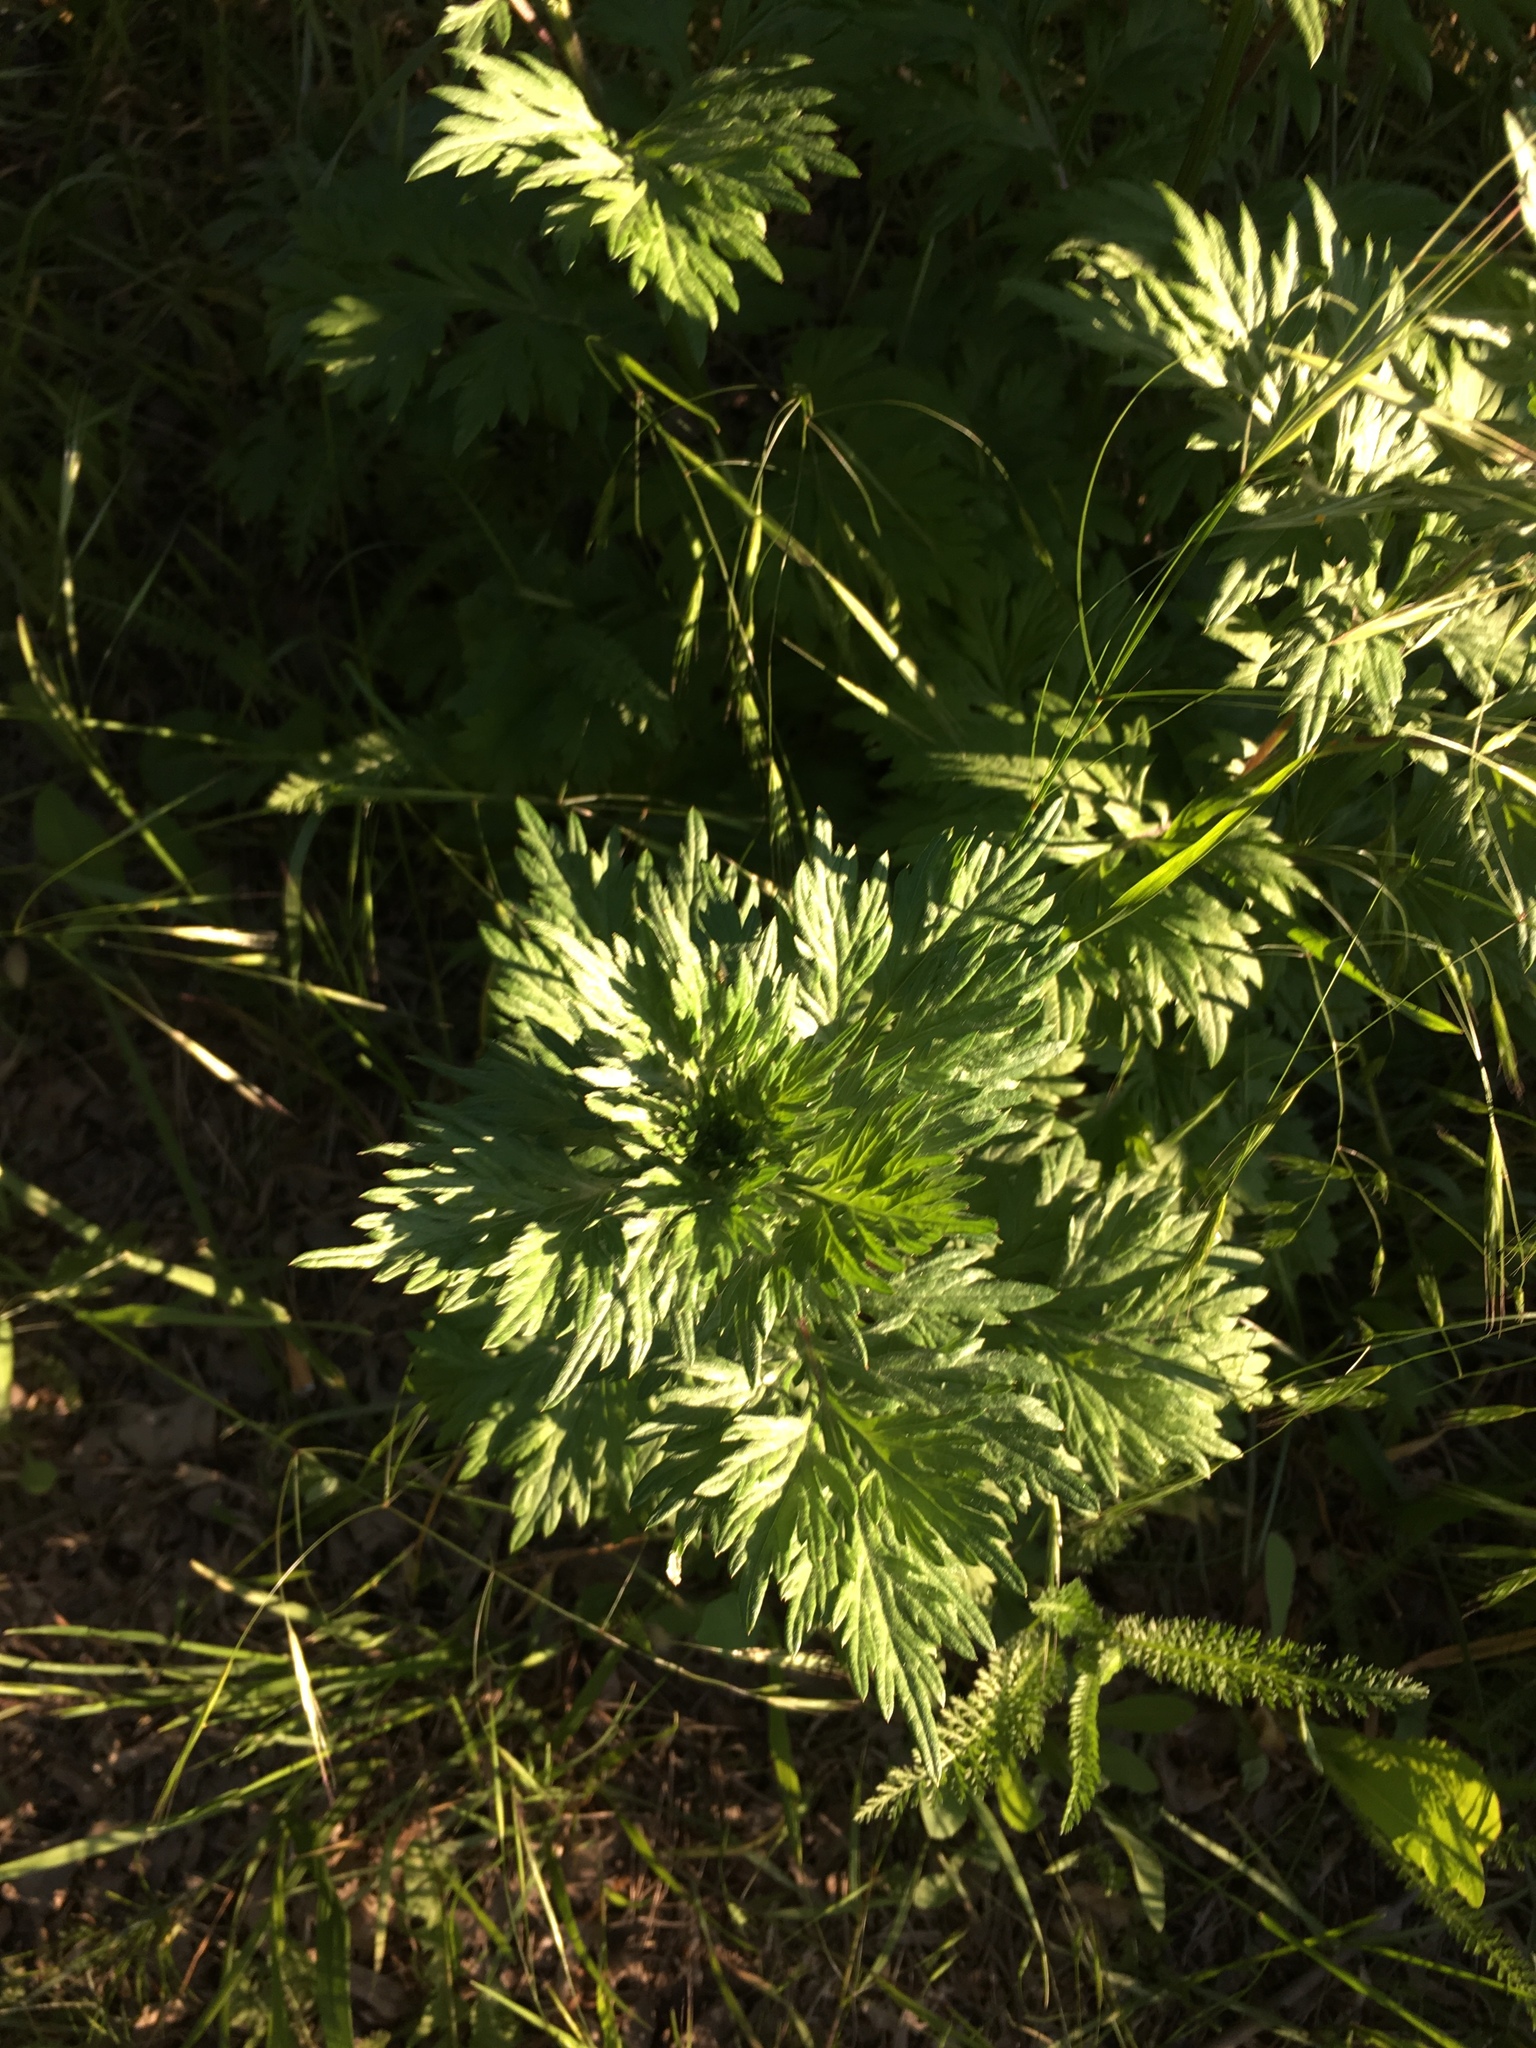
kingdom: Plantae
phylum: Tracheophyta
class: Magnoliopsida
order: Asterales
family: Asteraceae
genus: Artemisia
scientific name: Artemisia vulgaris
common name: Mugwort
